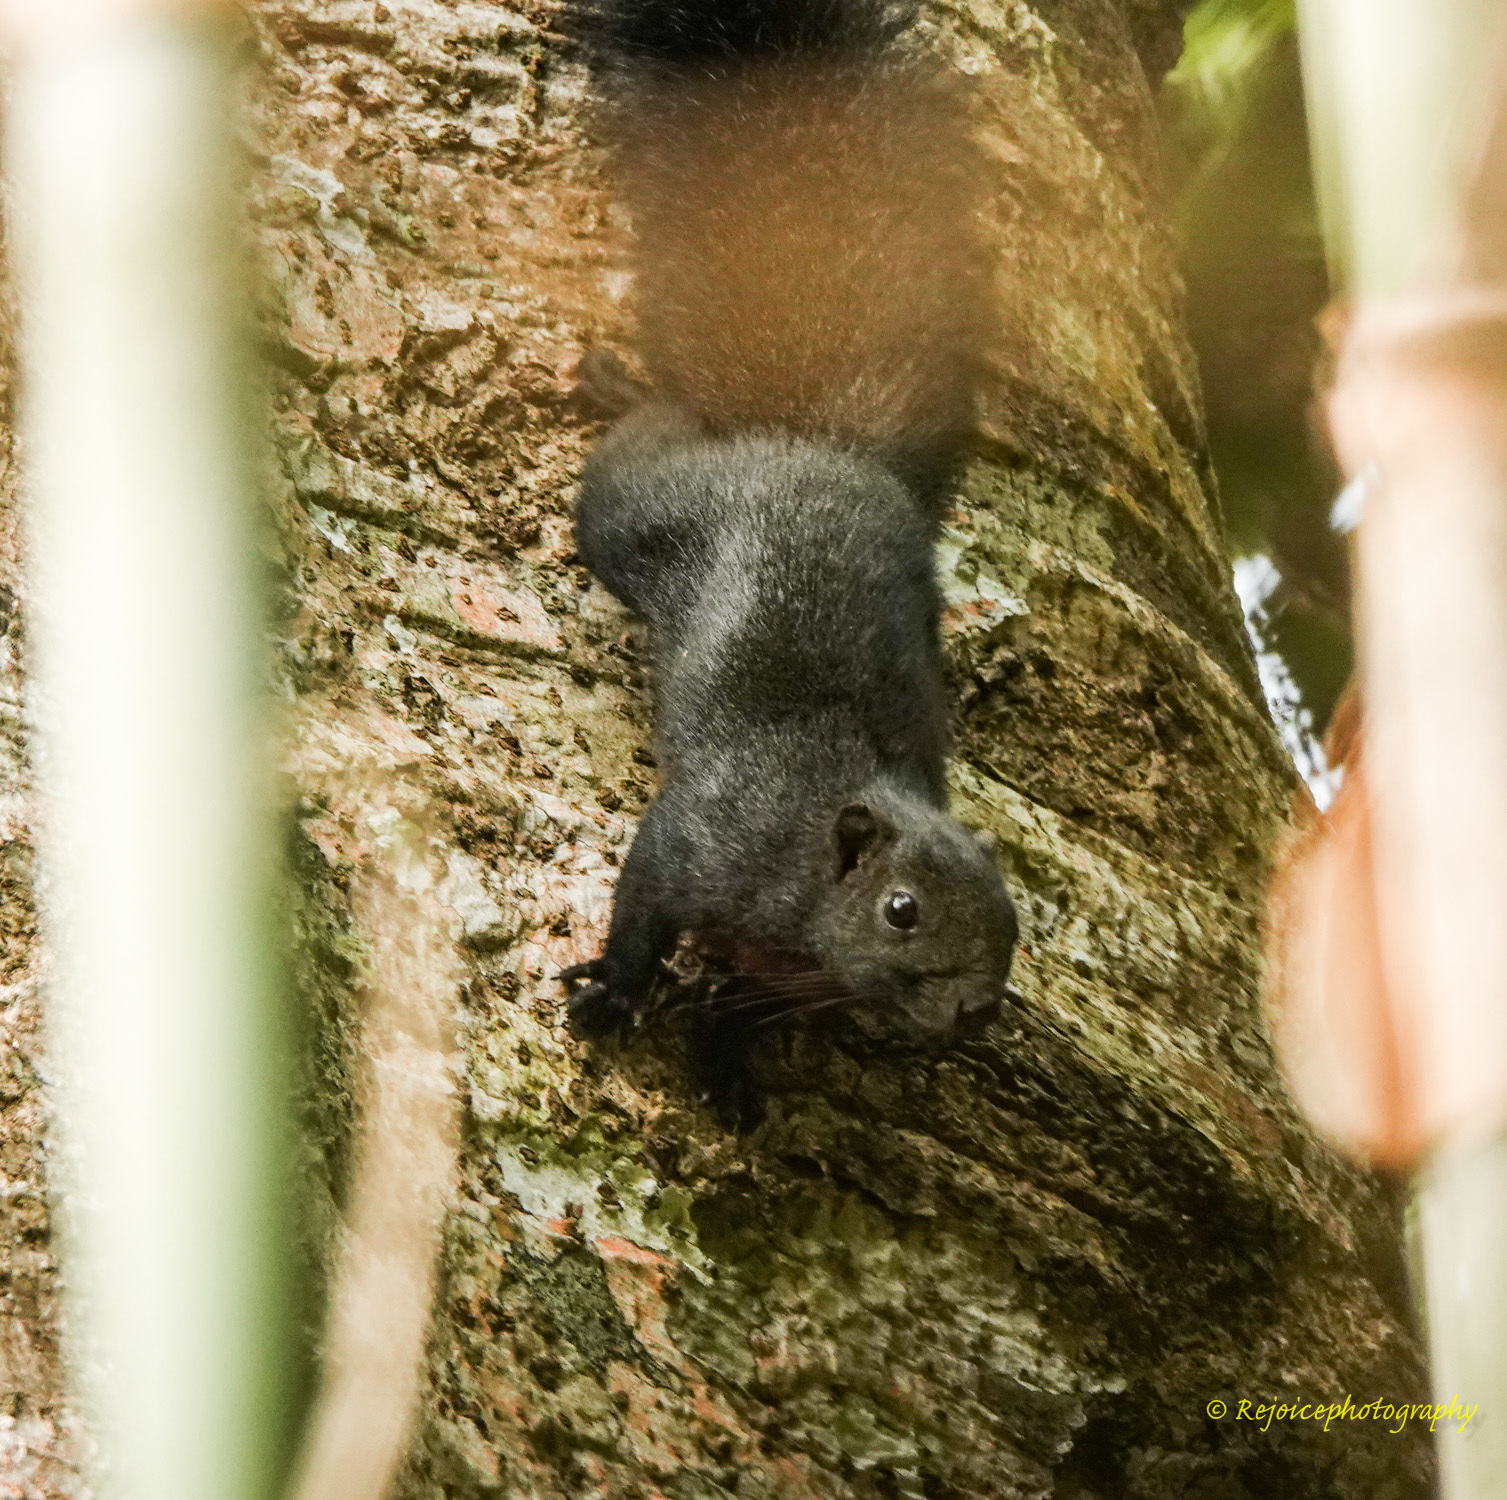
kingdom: Animalia
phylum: Chordata
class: Mammalia
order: Rodentia
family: Sciuridae
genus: Callosciurus
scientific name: Callosciurus erythraeus
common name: Pallas's squirrel
